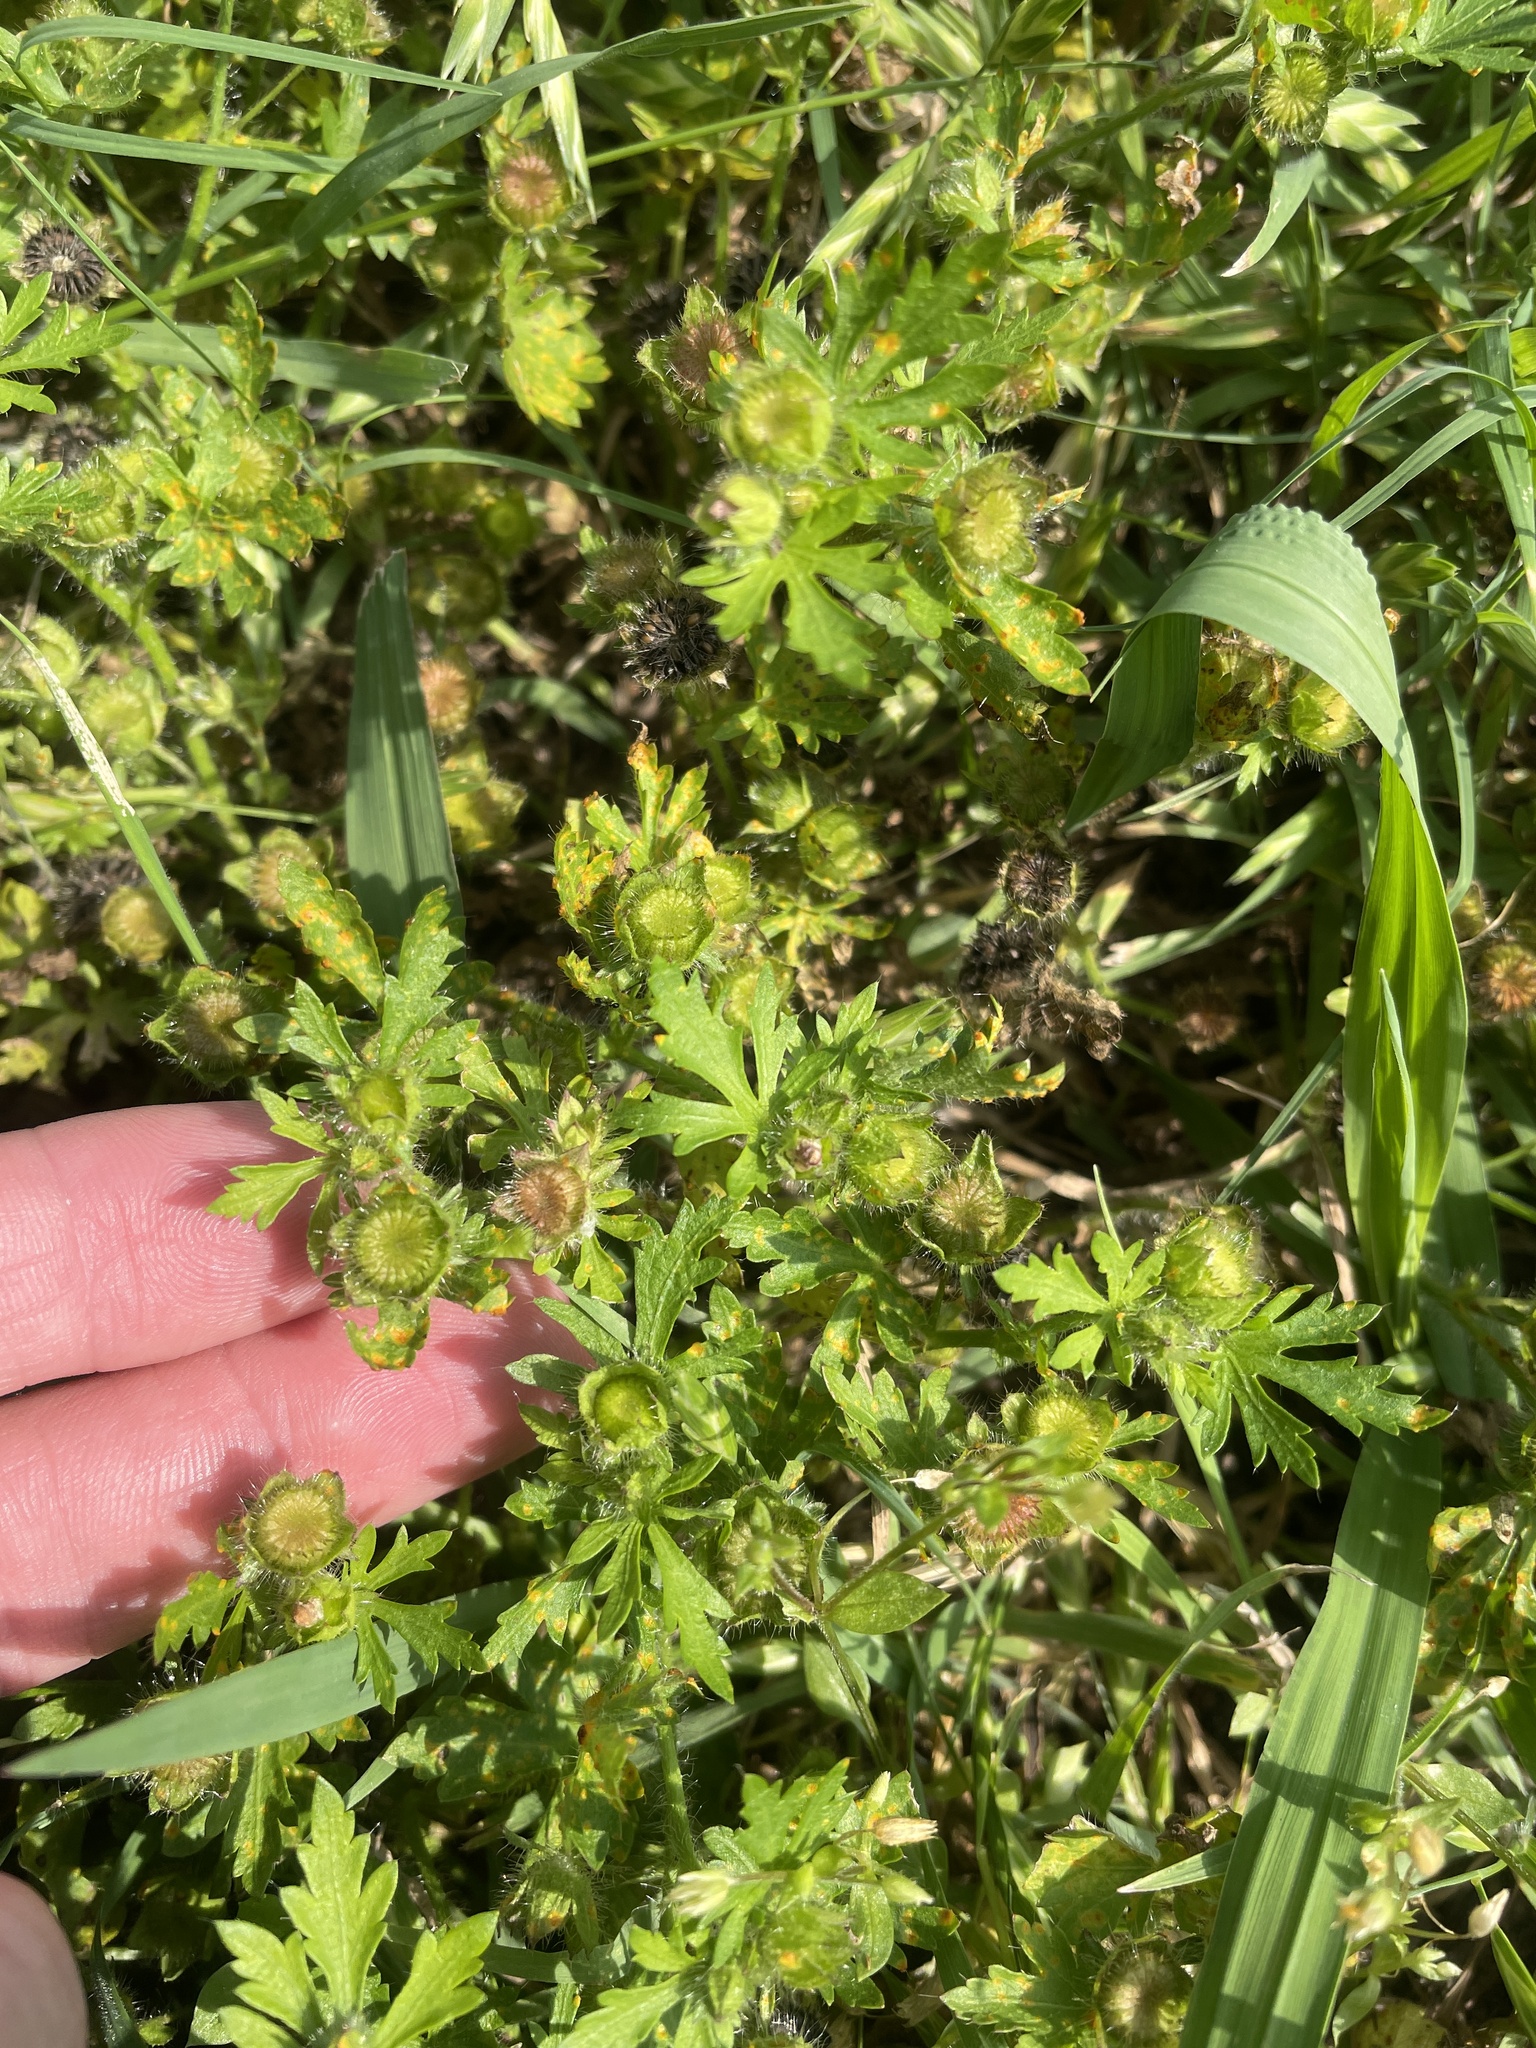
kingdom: Plantae
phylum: Tracheophyta
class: Magnoliopsida
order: Malvales
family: Malvaceae
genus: Modiola
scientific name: Modiola caroliniana
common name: Carolina bristlemallow
